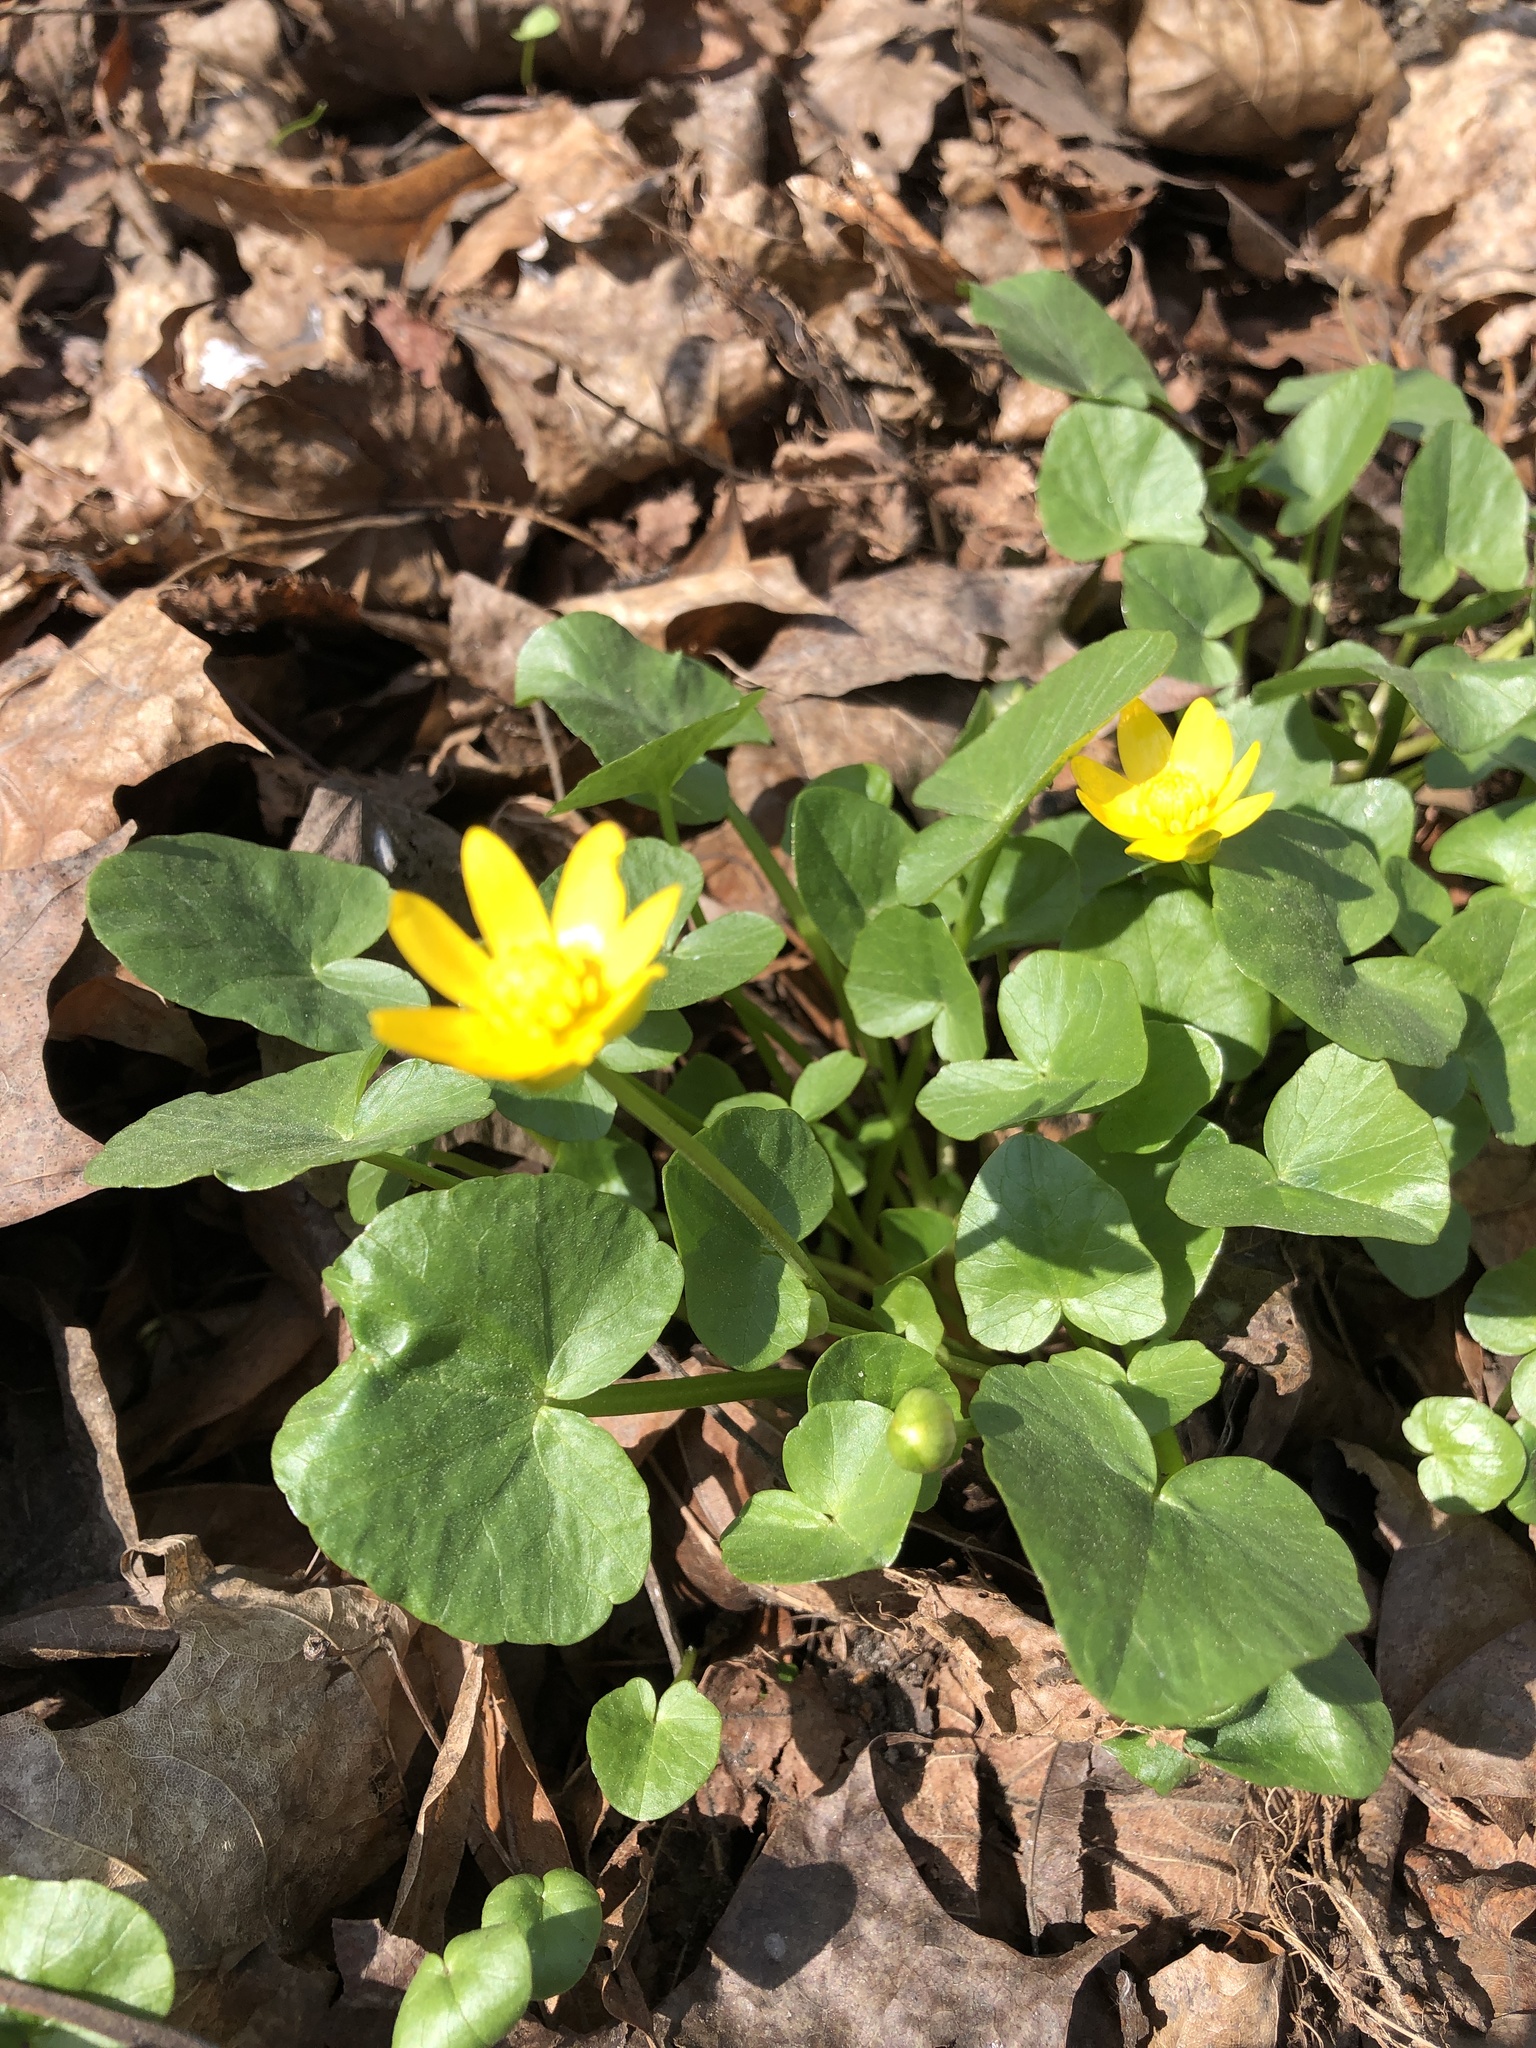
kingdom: Plantae
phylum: Tracheophyta
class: Magnoliopsida
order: Ranunculales
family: Ranunculaceae
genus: Ficaria
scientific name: Ficaria verna
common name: Lesser celandine
